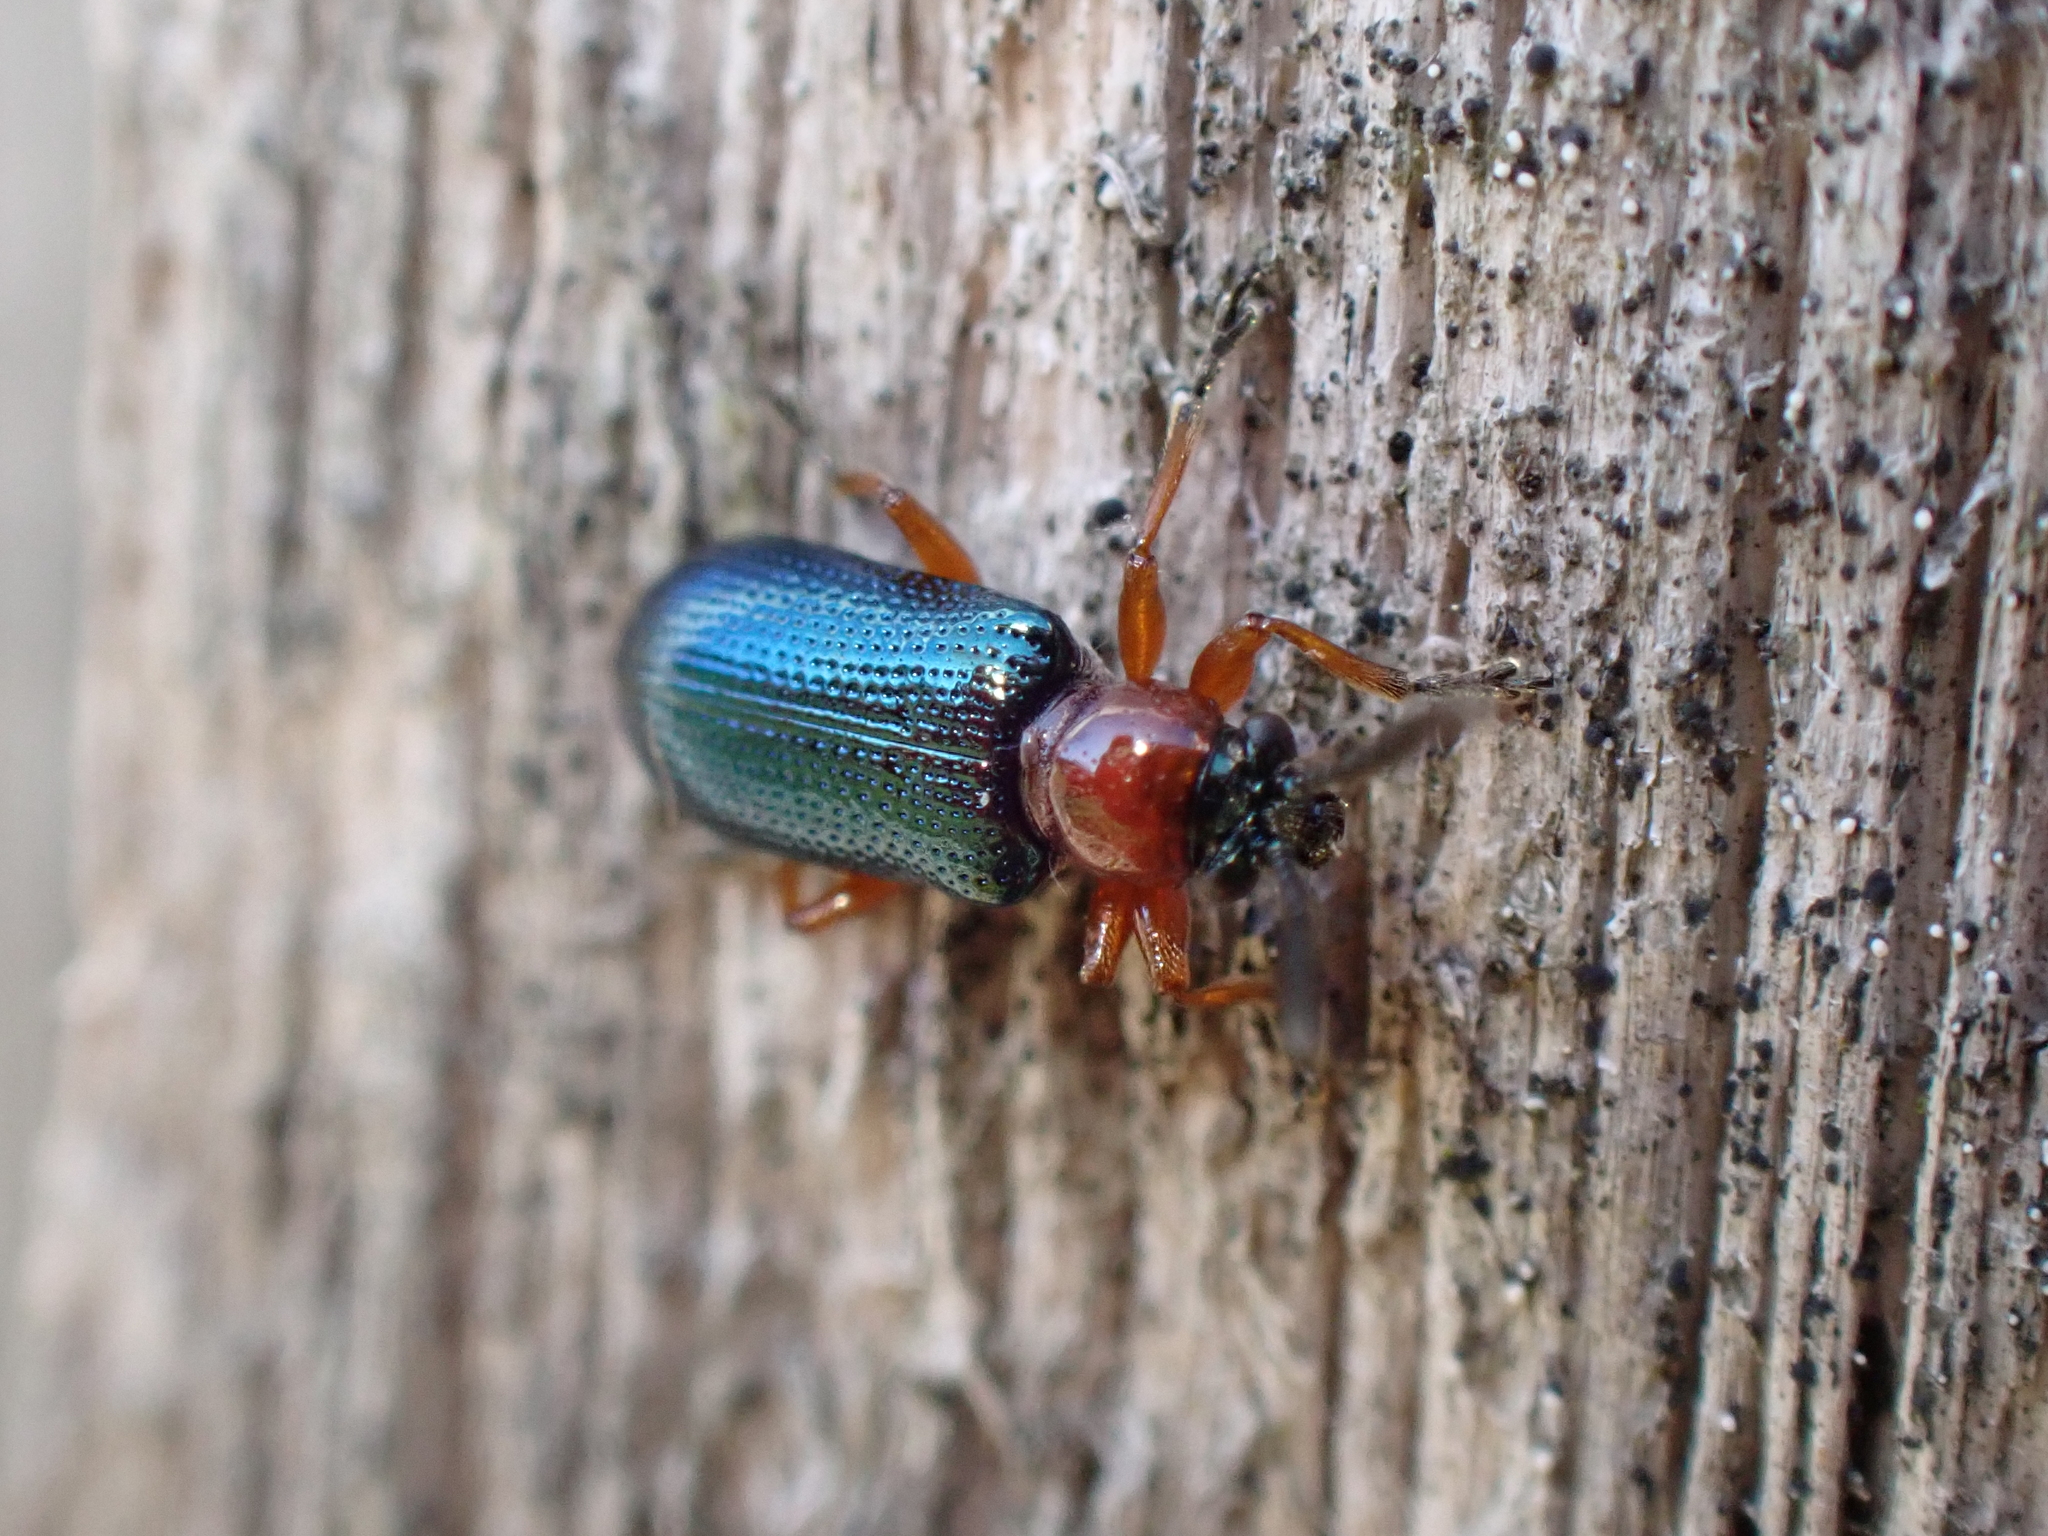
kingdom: Animalia
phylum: Arthropoda
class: Insecta
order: Coleoptera
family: Chrysomelidae
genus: Oulema
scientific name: Oulema
